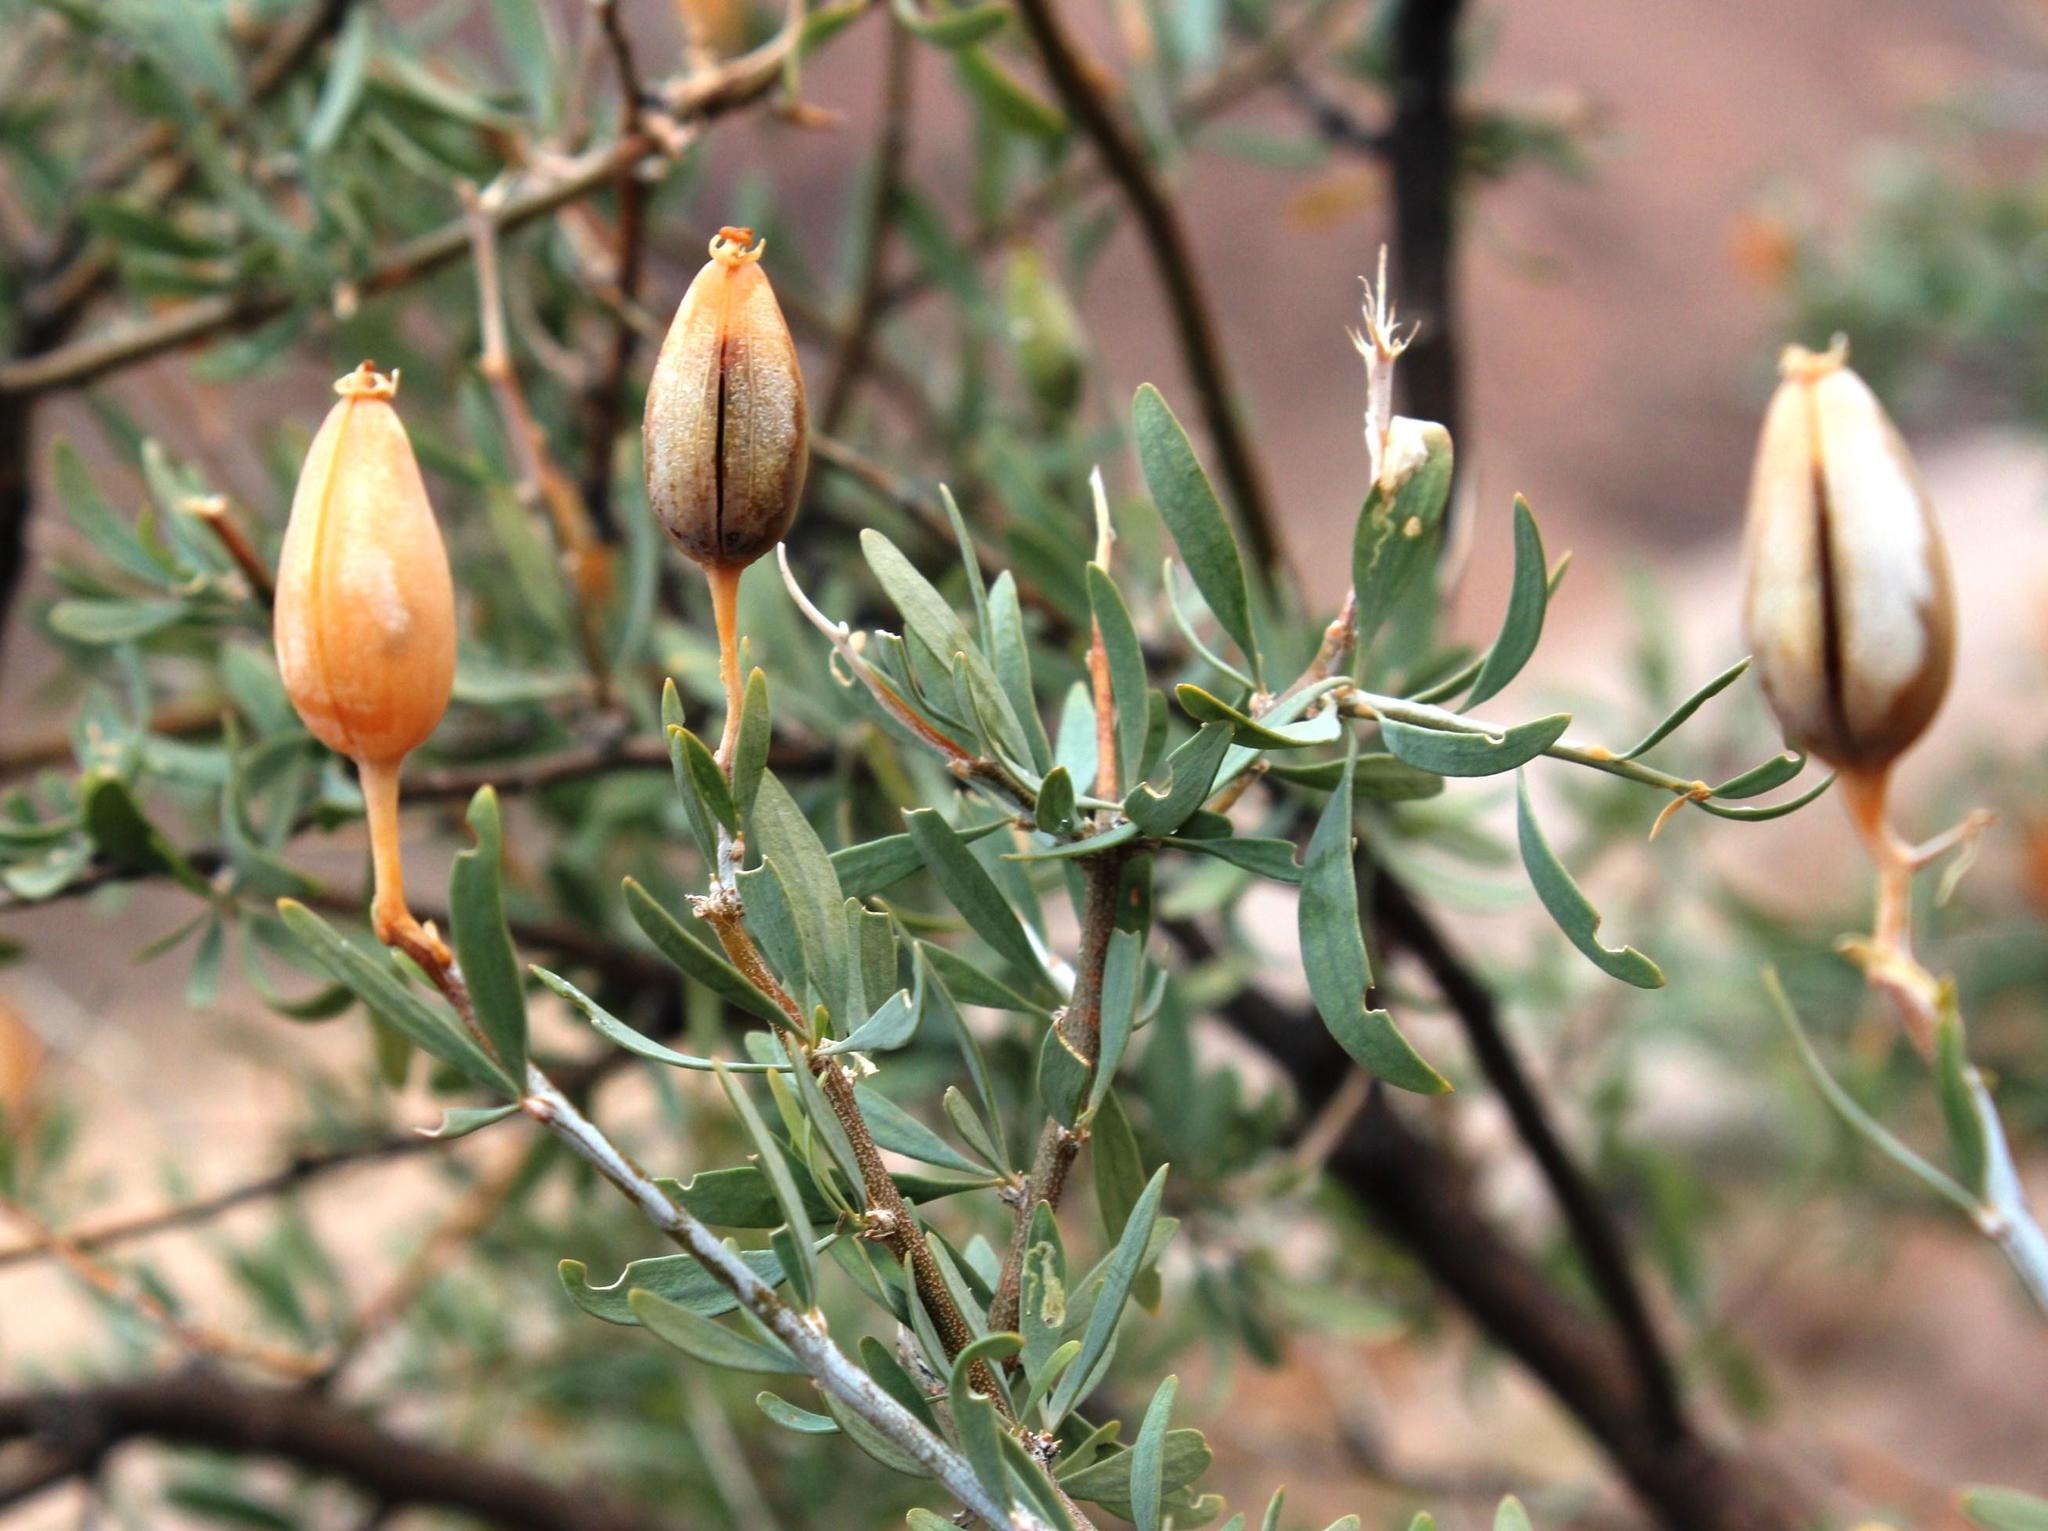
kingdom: Plantae
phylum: Tracheophyta
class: Magnoliopsida
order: Solanales
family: Montiniaceae
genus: Montinia
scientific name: Montinia caryophyllacea
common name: Wild clove-bush
